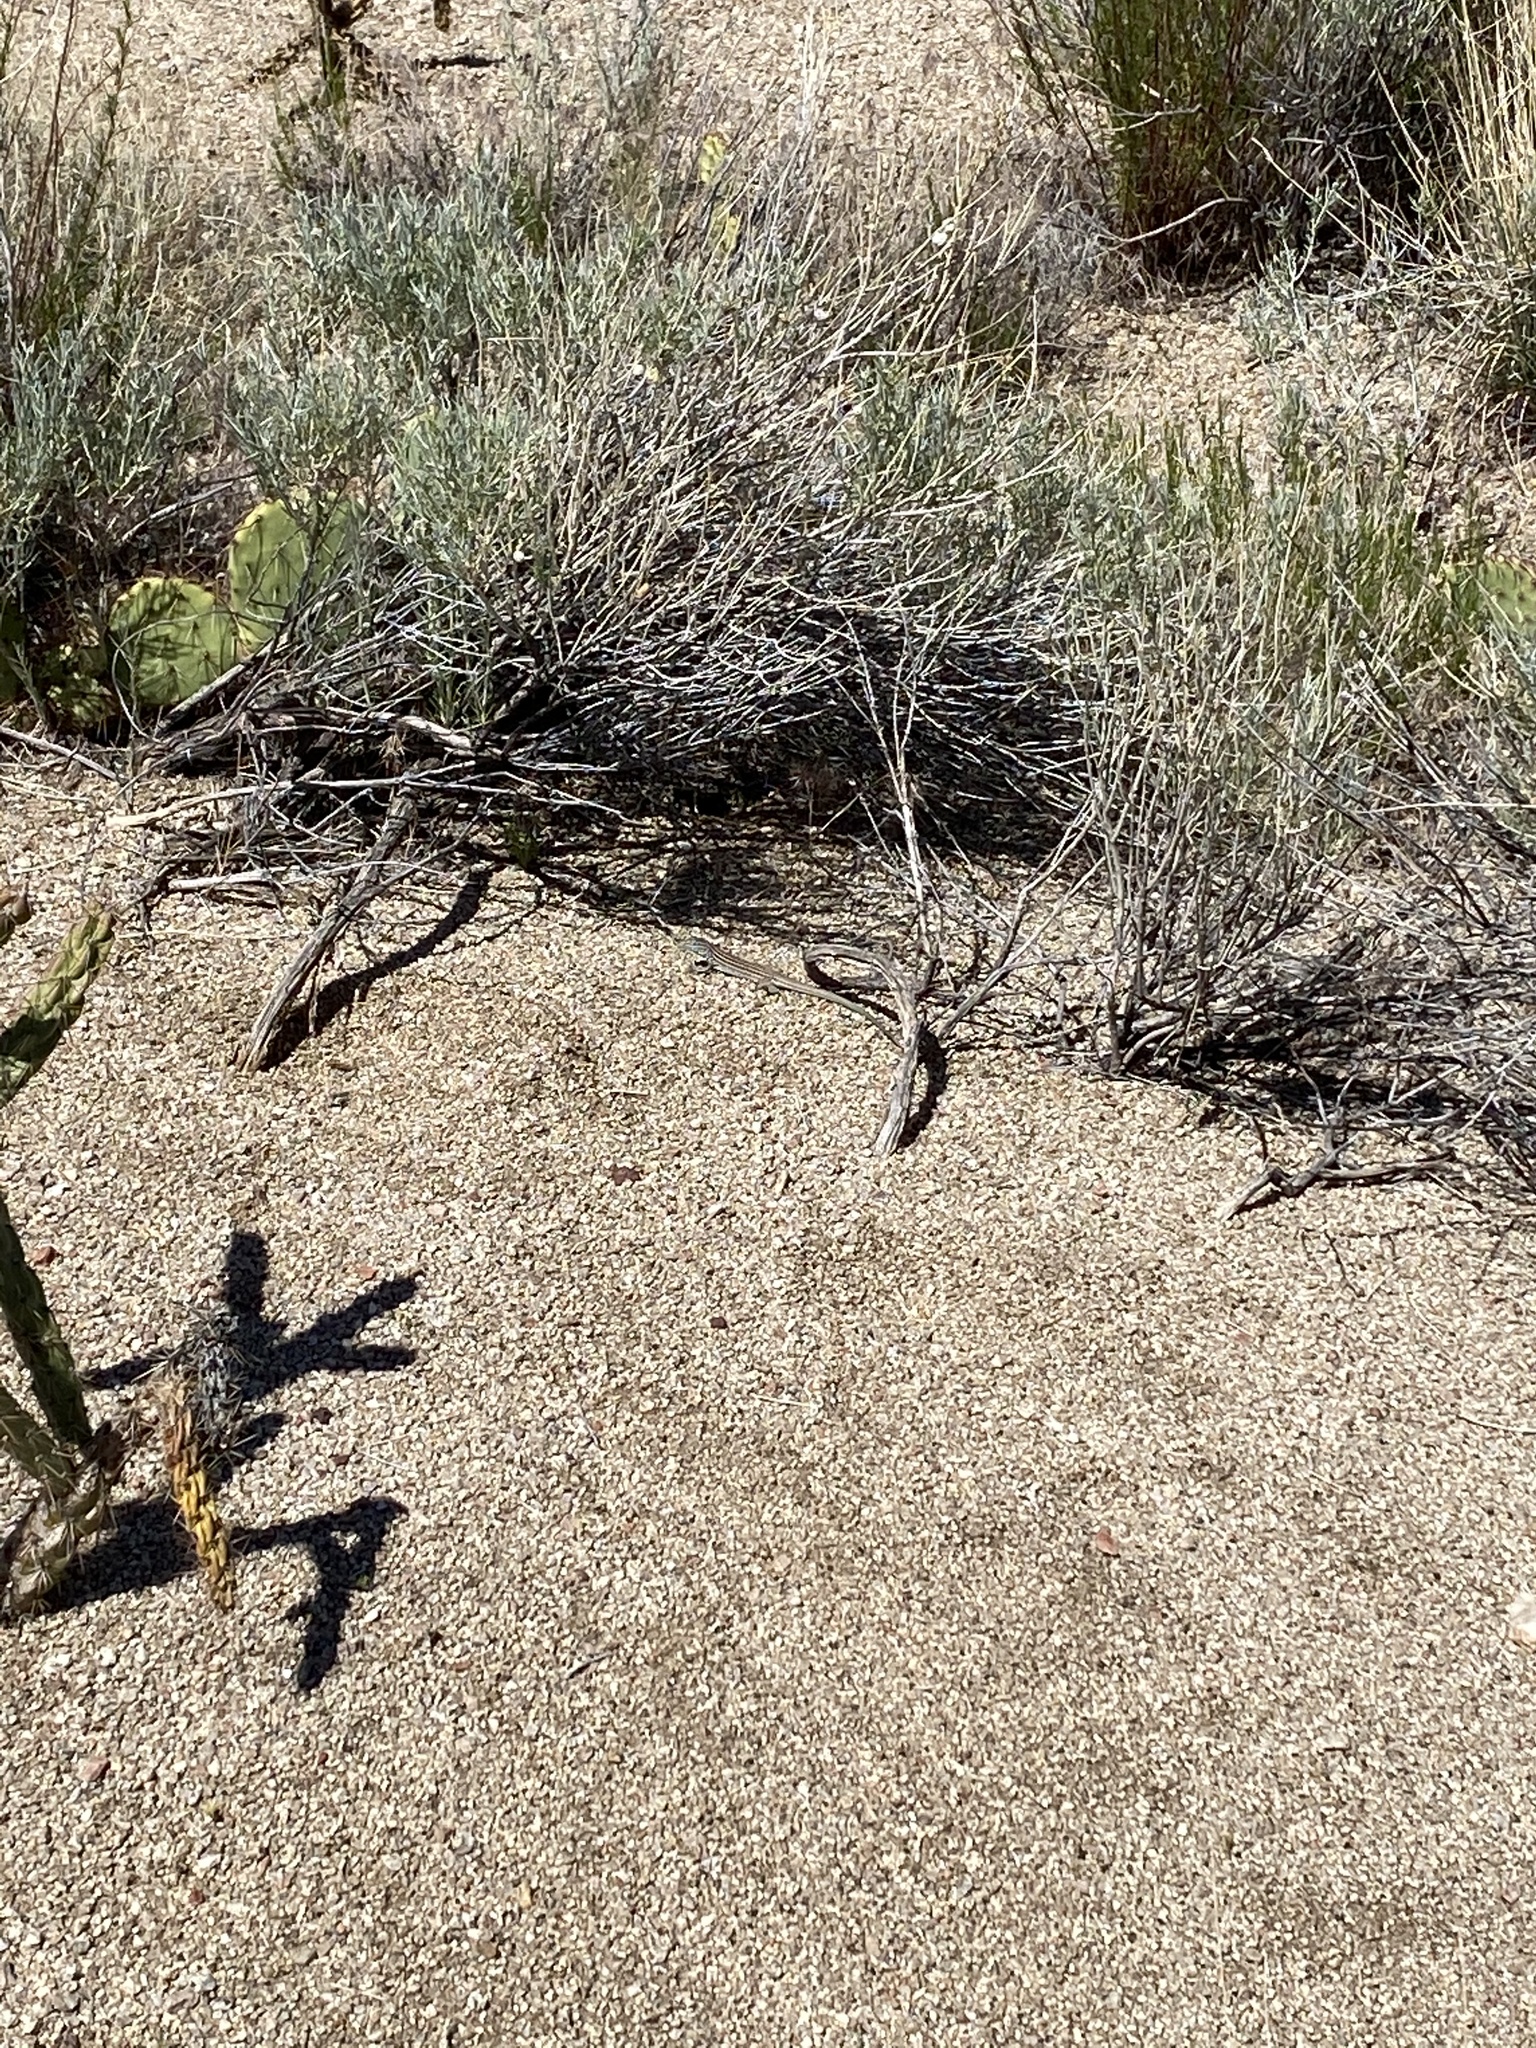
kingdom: Animalia
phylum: Chordata
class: Squamata
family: Teiidae
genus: Aspidoscelis
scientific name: Aspidoscelis
